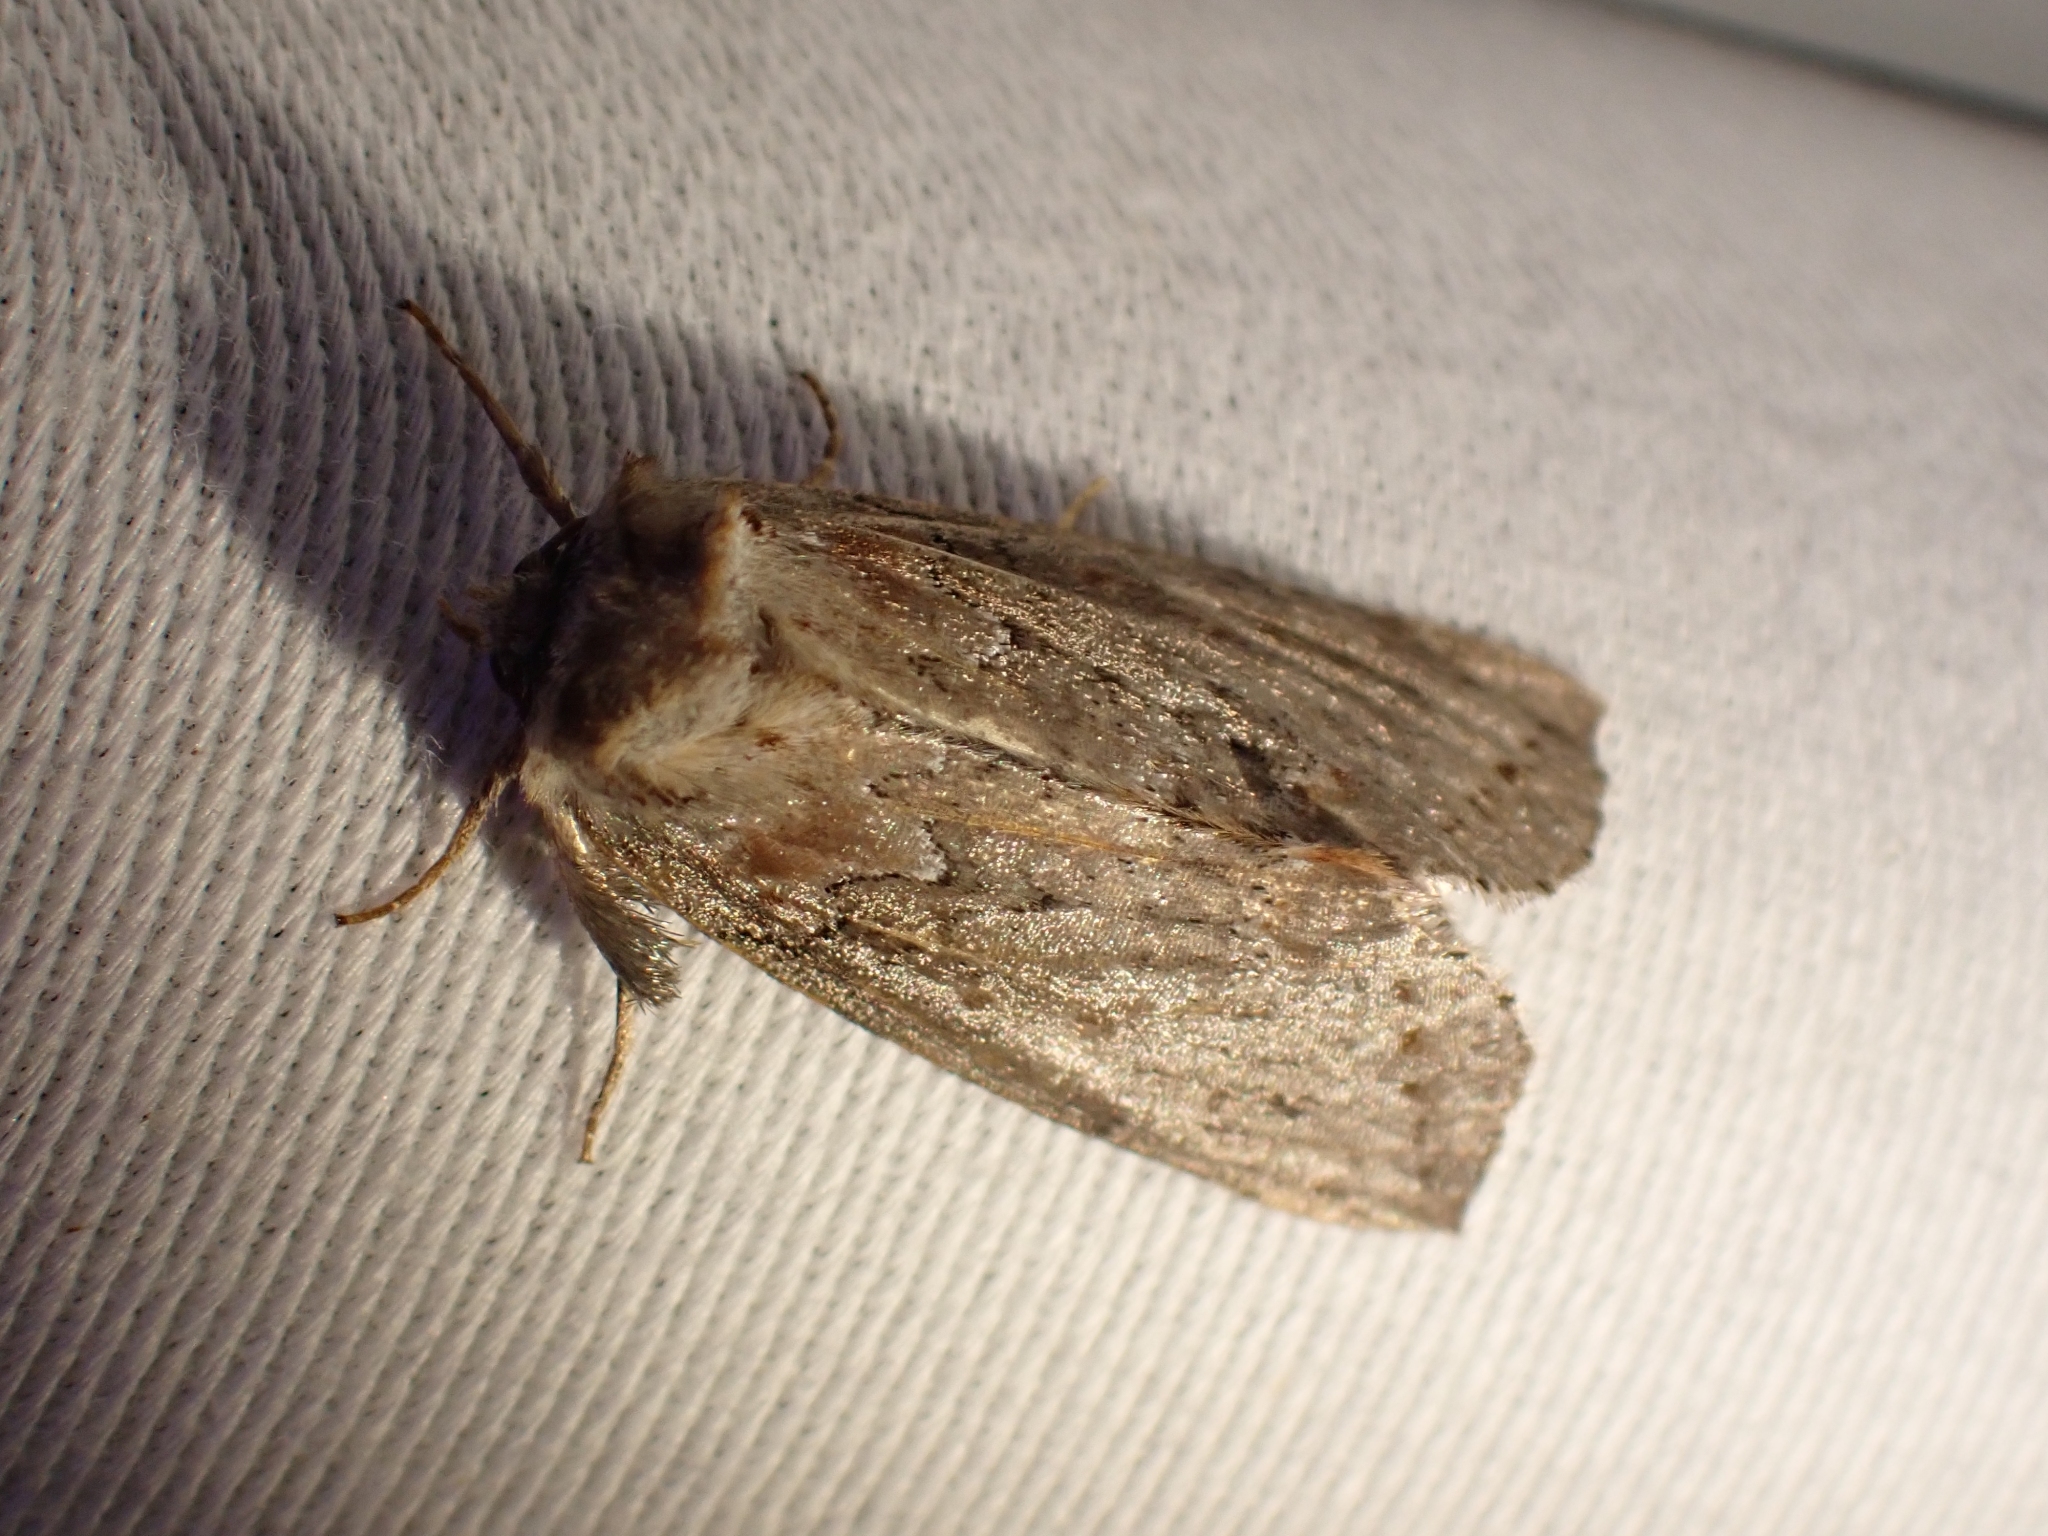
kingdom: Animalia
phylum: Arthropoda
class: Insecta
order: Lepidoptera
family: Drepanidae
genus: Pseudothyatira
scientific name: Pseudothyatira cymatophoroides
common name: Tufted thyatirid moth
